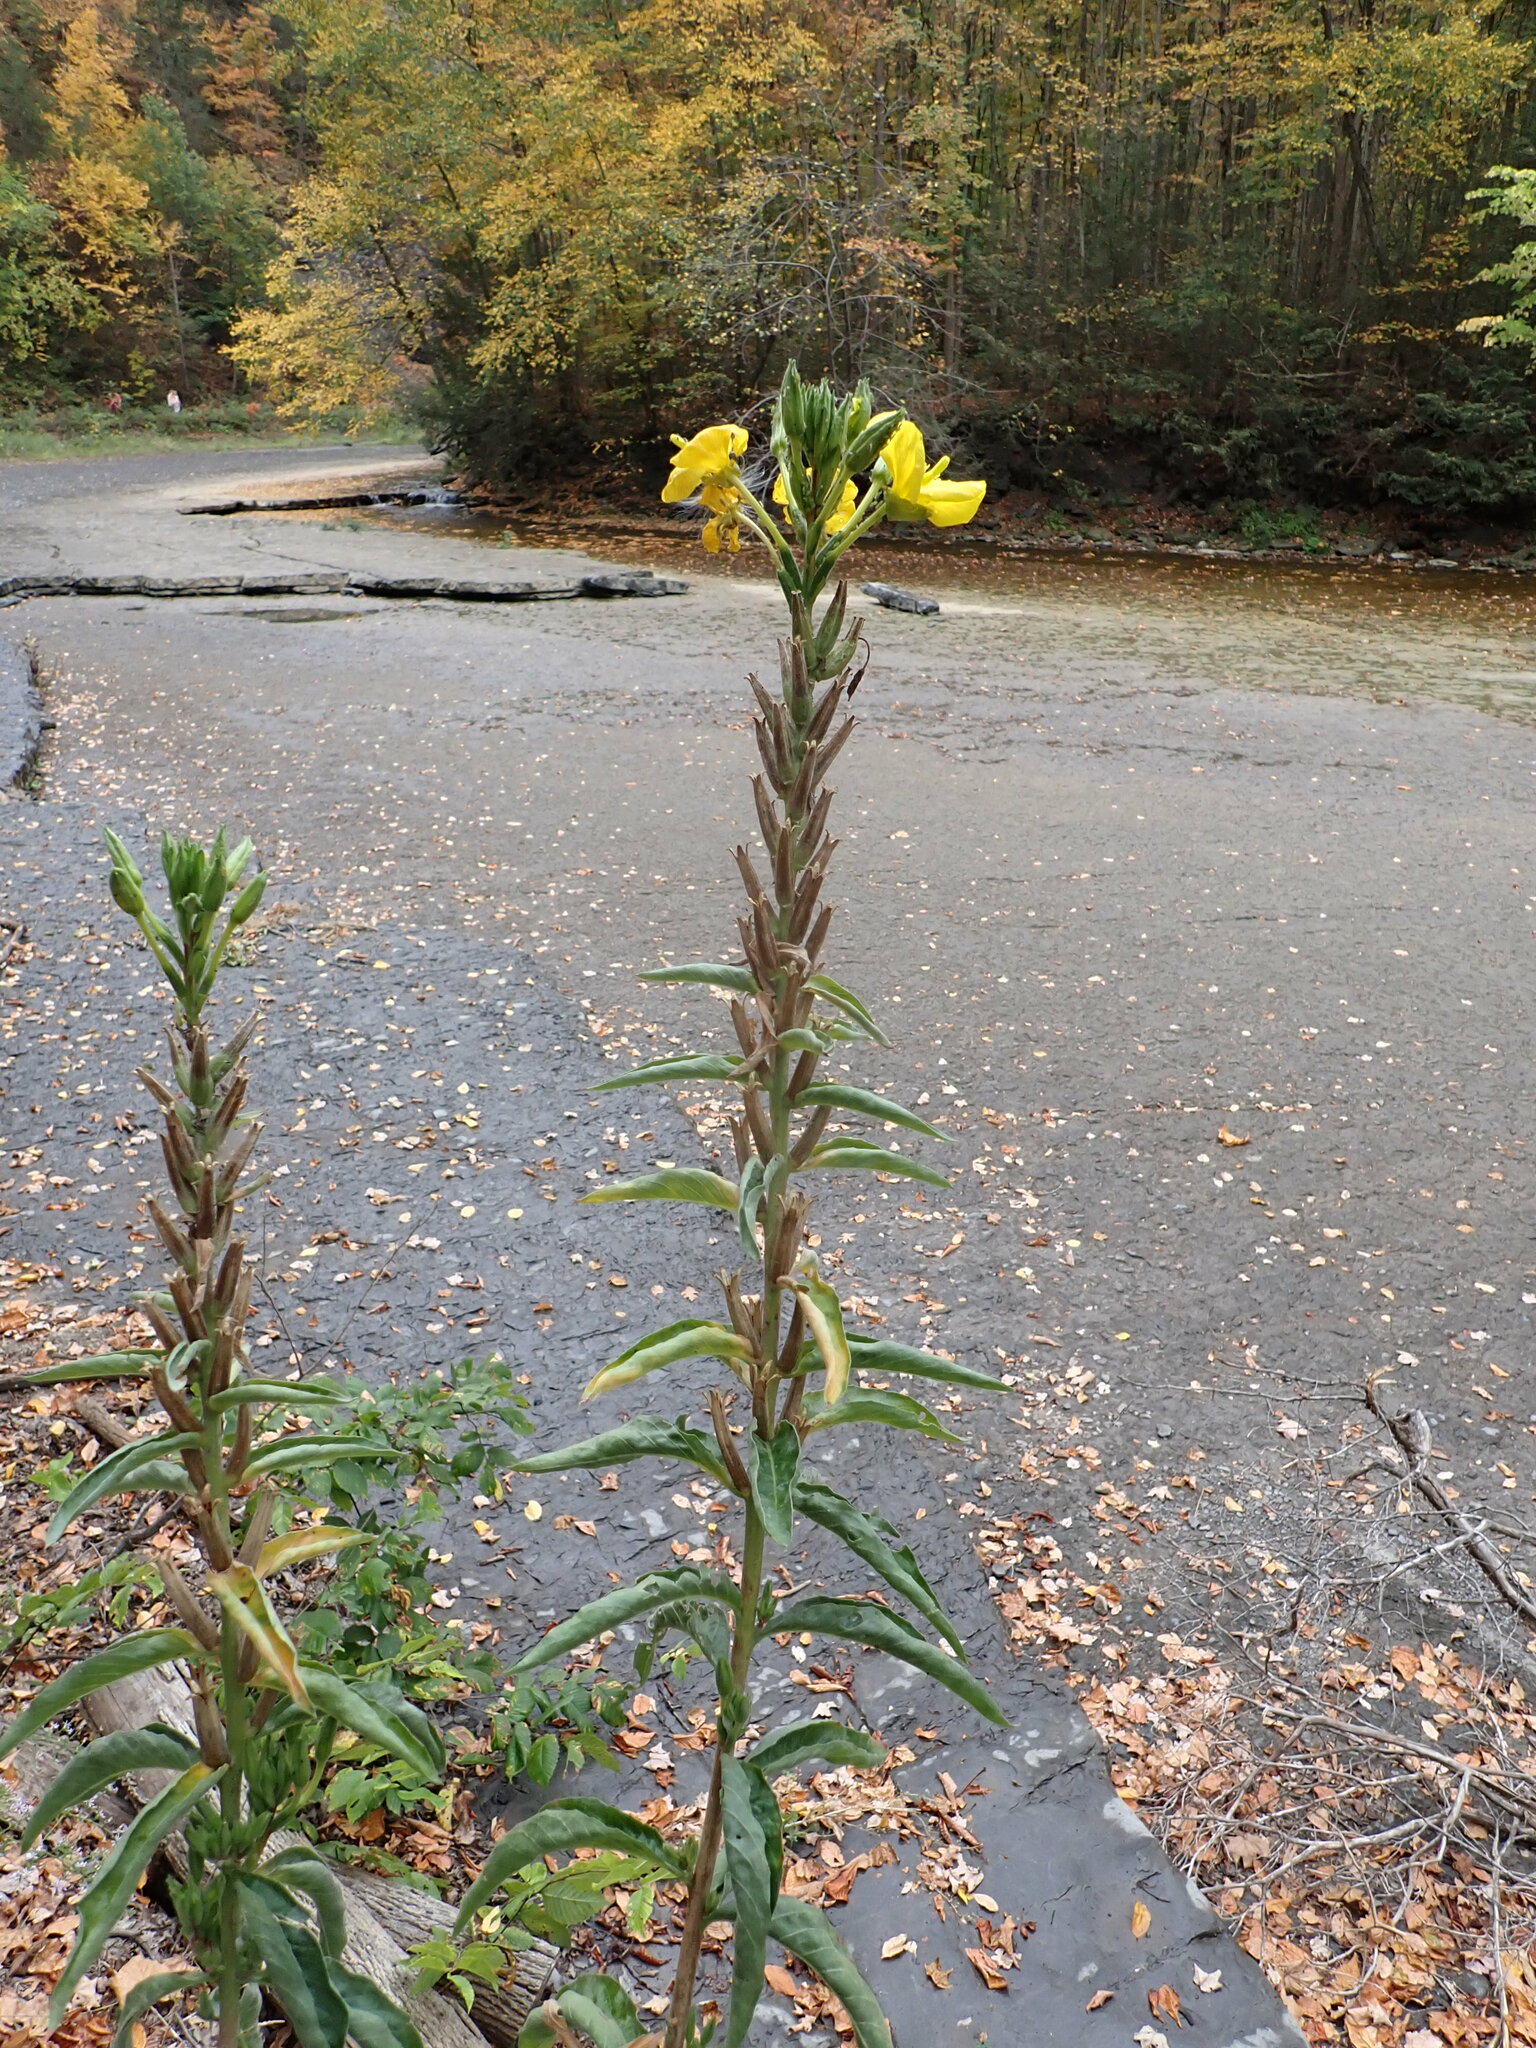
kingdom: Plantae
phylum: Tracheophyta
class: Magnoliopsida
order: Myrtales
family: Onagraceae
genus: Oenothera
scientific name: Oenothera biennis
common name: Common evening-primrose
